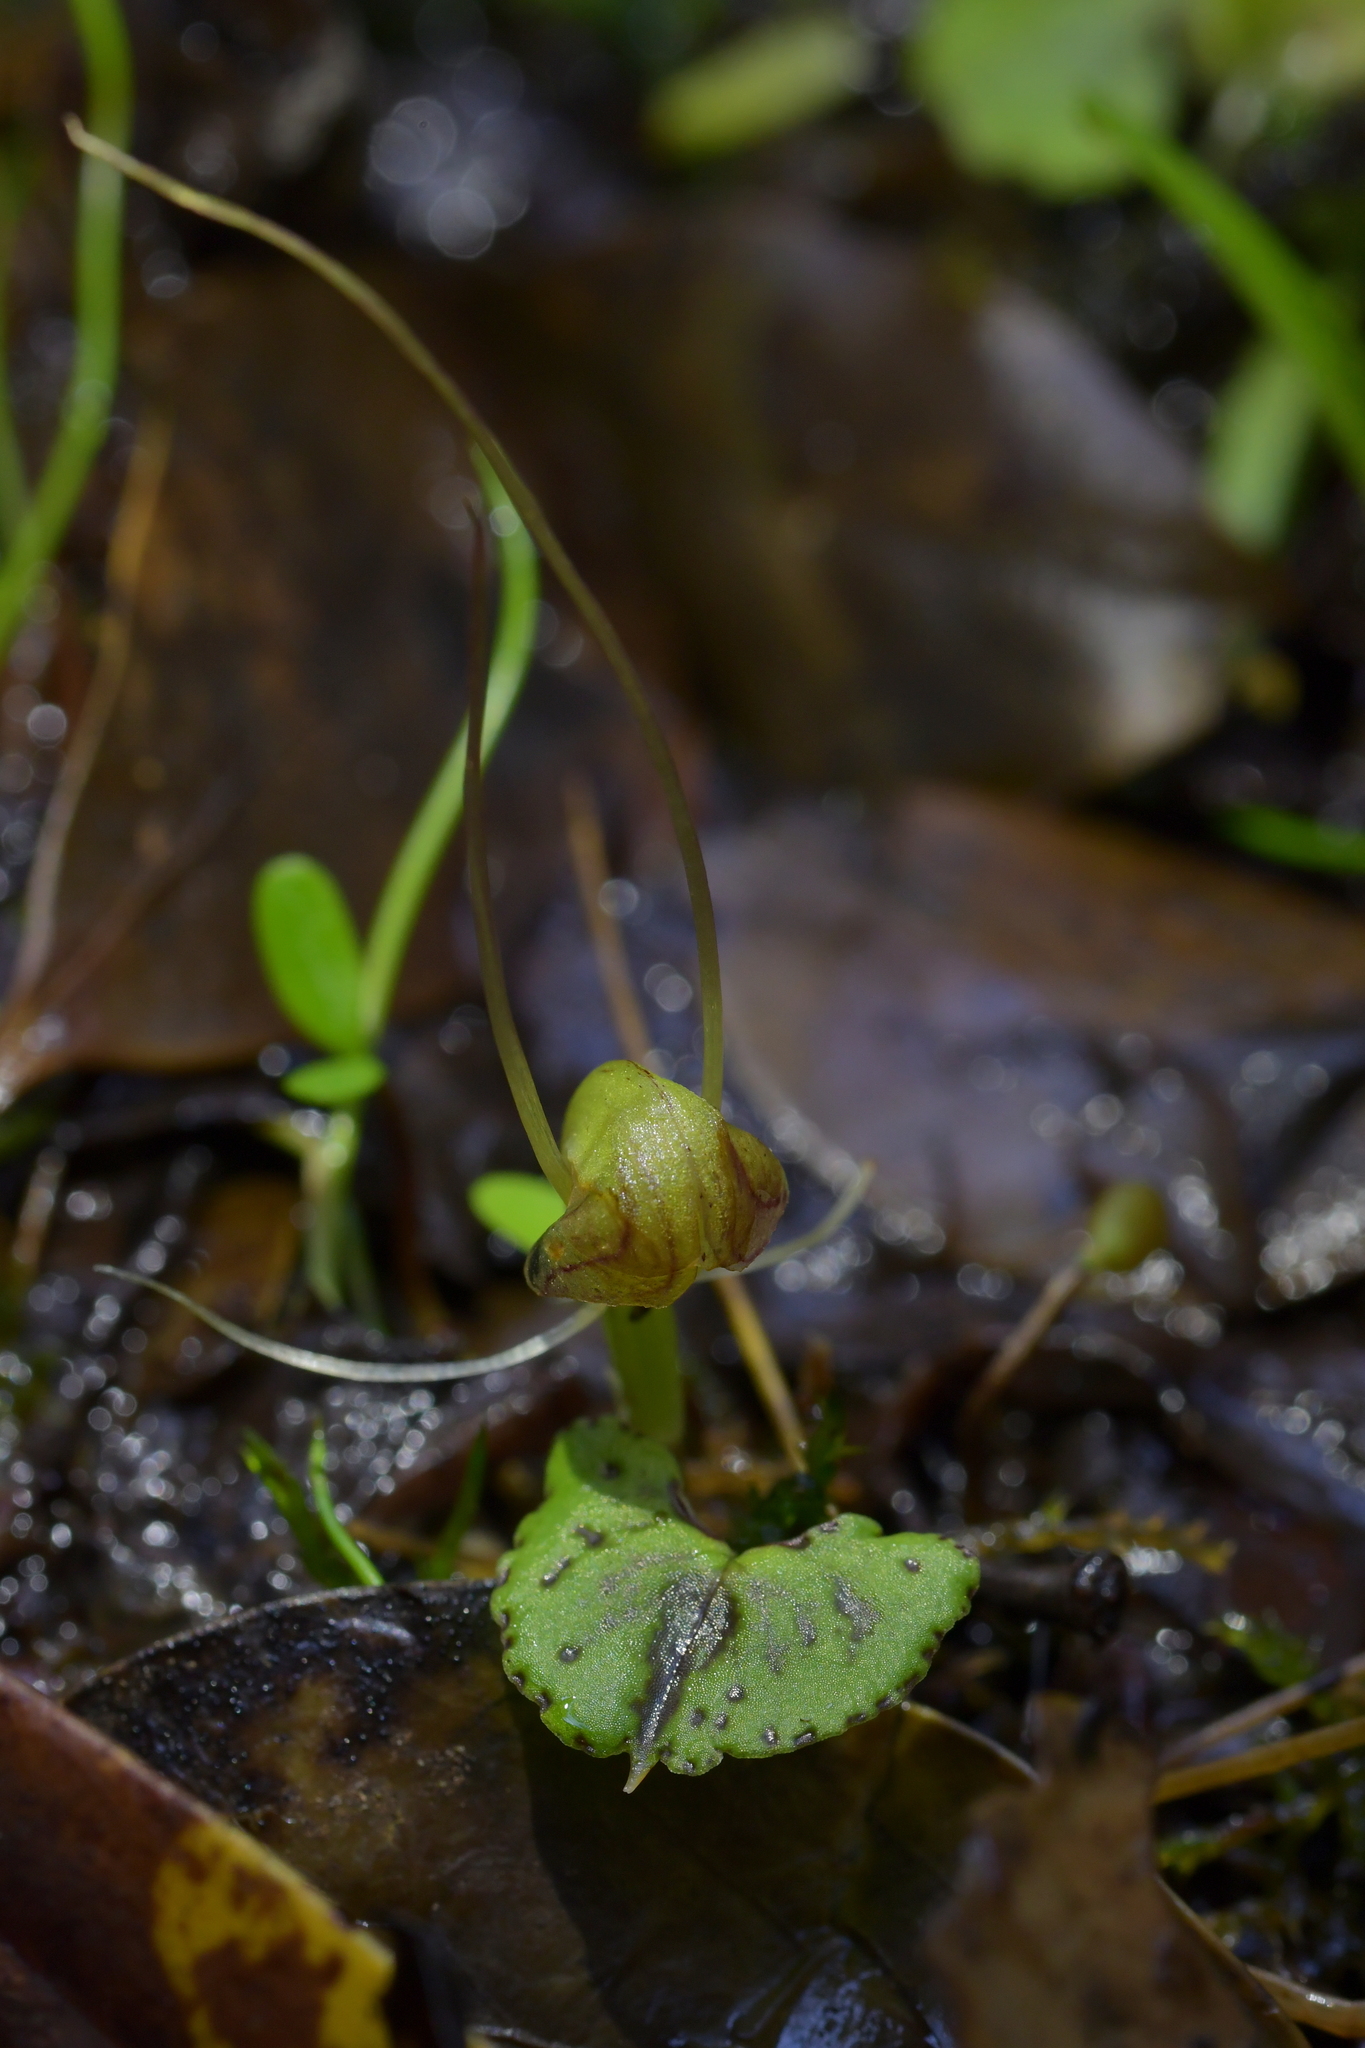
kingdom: Plantae
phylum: Tracheophyta
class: Liliopsida
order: Asparagales
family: Orchidaceae
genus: Corybas
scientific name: Corybas walliae
